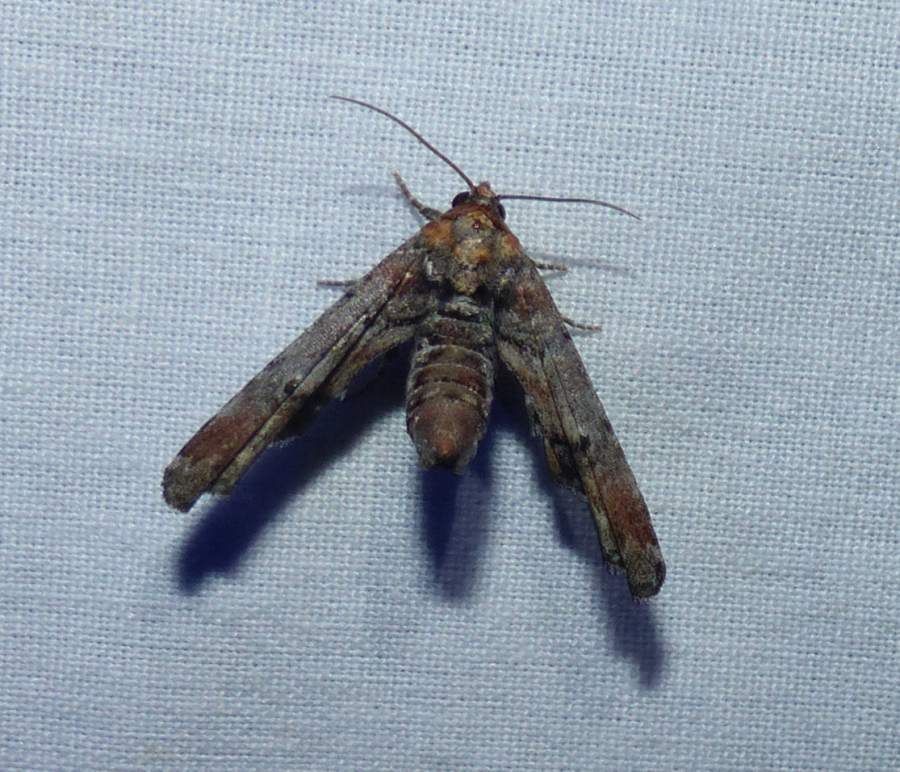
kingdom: Animalia
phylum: Arthropoda
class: Insecta
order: Lepidoptera
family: Euteliidae
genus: Marathyssa
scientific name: Marathyssa inficita
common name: Dark marathyssa moth
